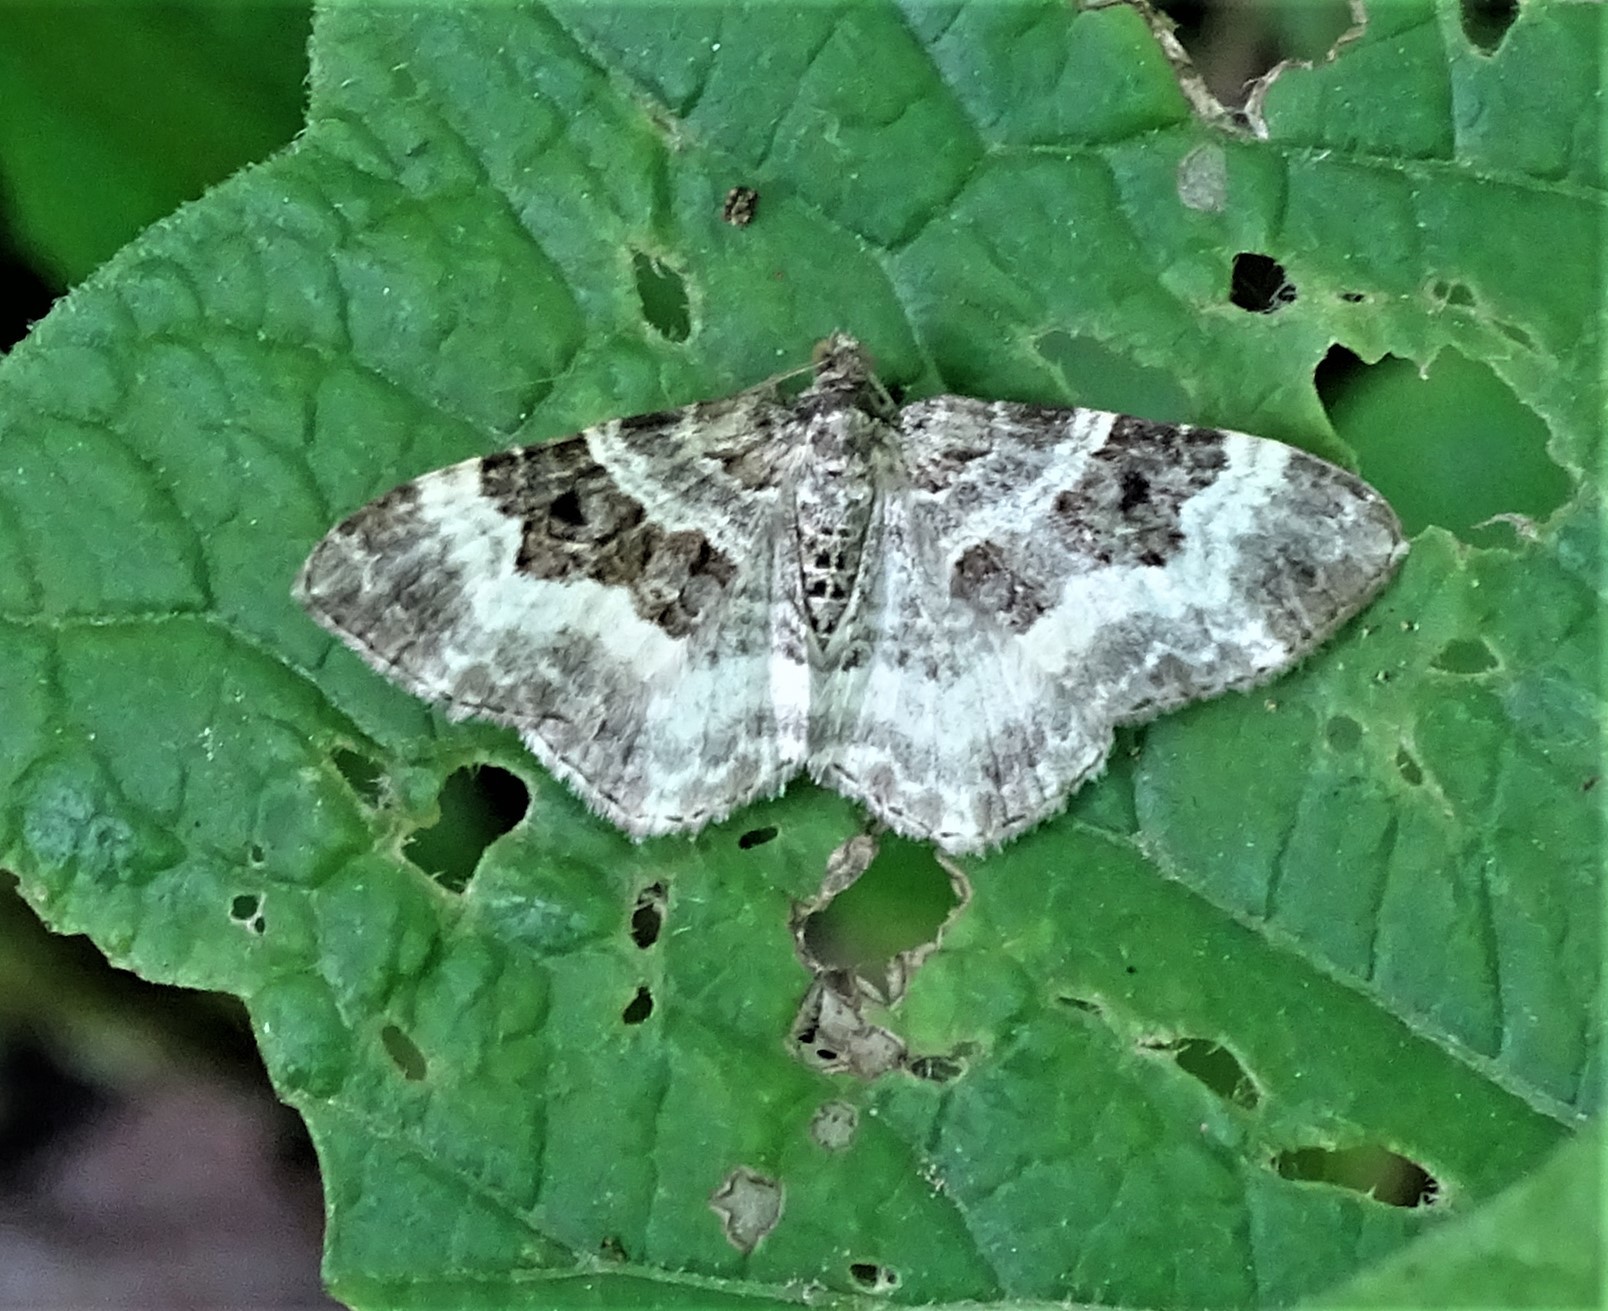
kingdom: Animalia
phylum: Arthropoda
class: Insecta
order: Lepidoptera
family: Geometridae
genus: Epirrhoe
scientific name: Epirrhoe alternata
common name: Common carpet
